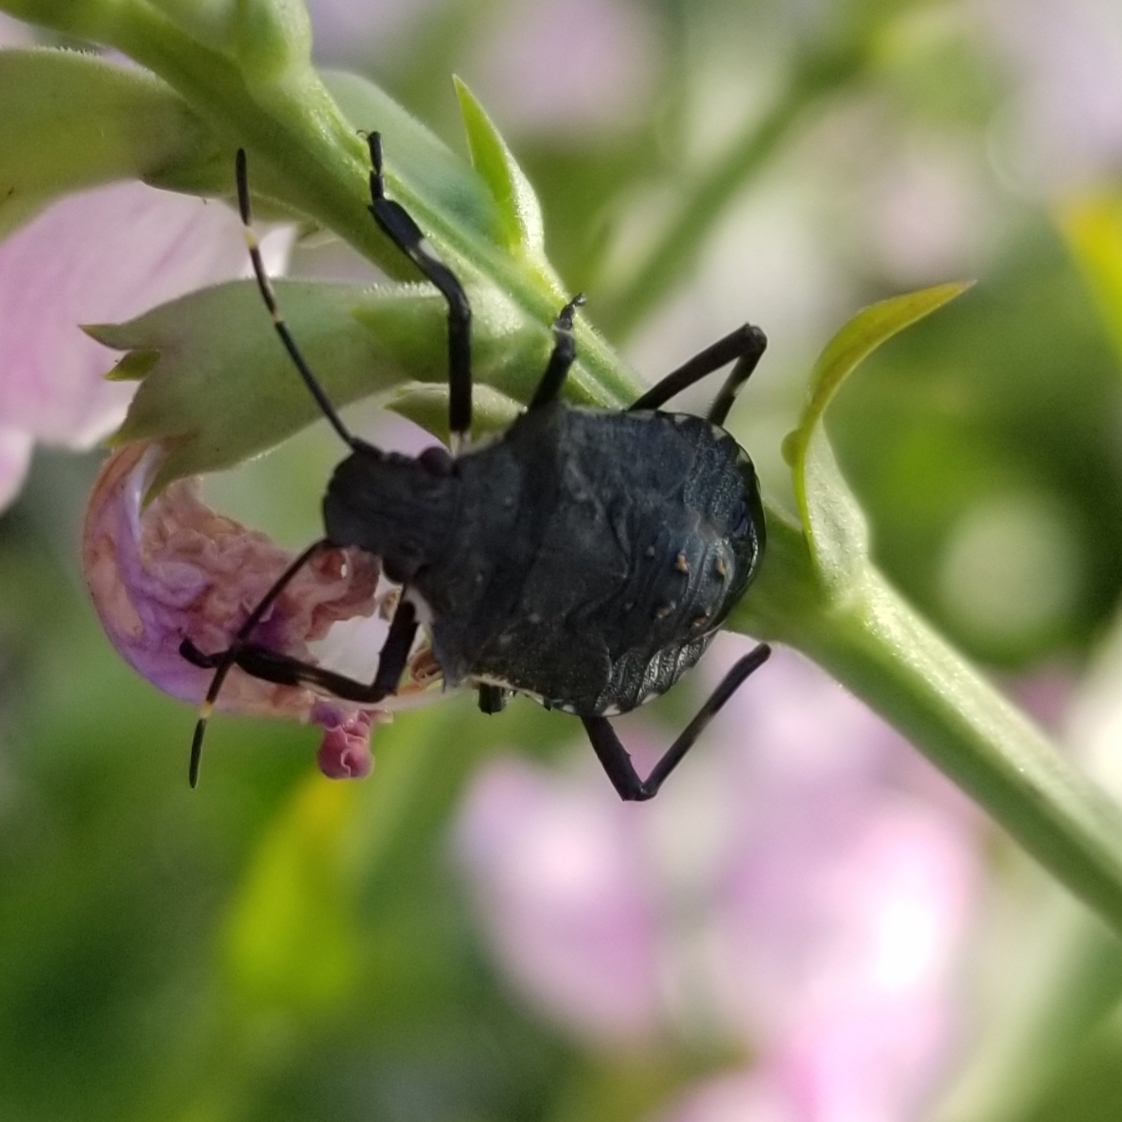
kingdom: Animalia
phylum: Arthropoda
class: Insecta
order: Hemiptera
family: Pentatomidae
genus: Halyomorpha
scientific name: Halyomorpha halys
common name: Brown marmorated stink bug
